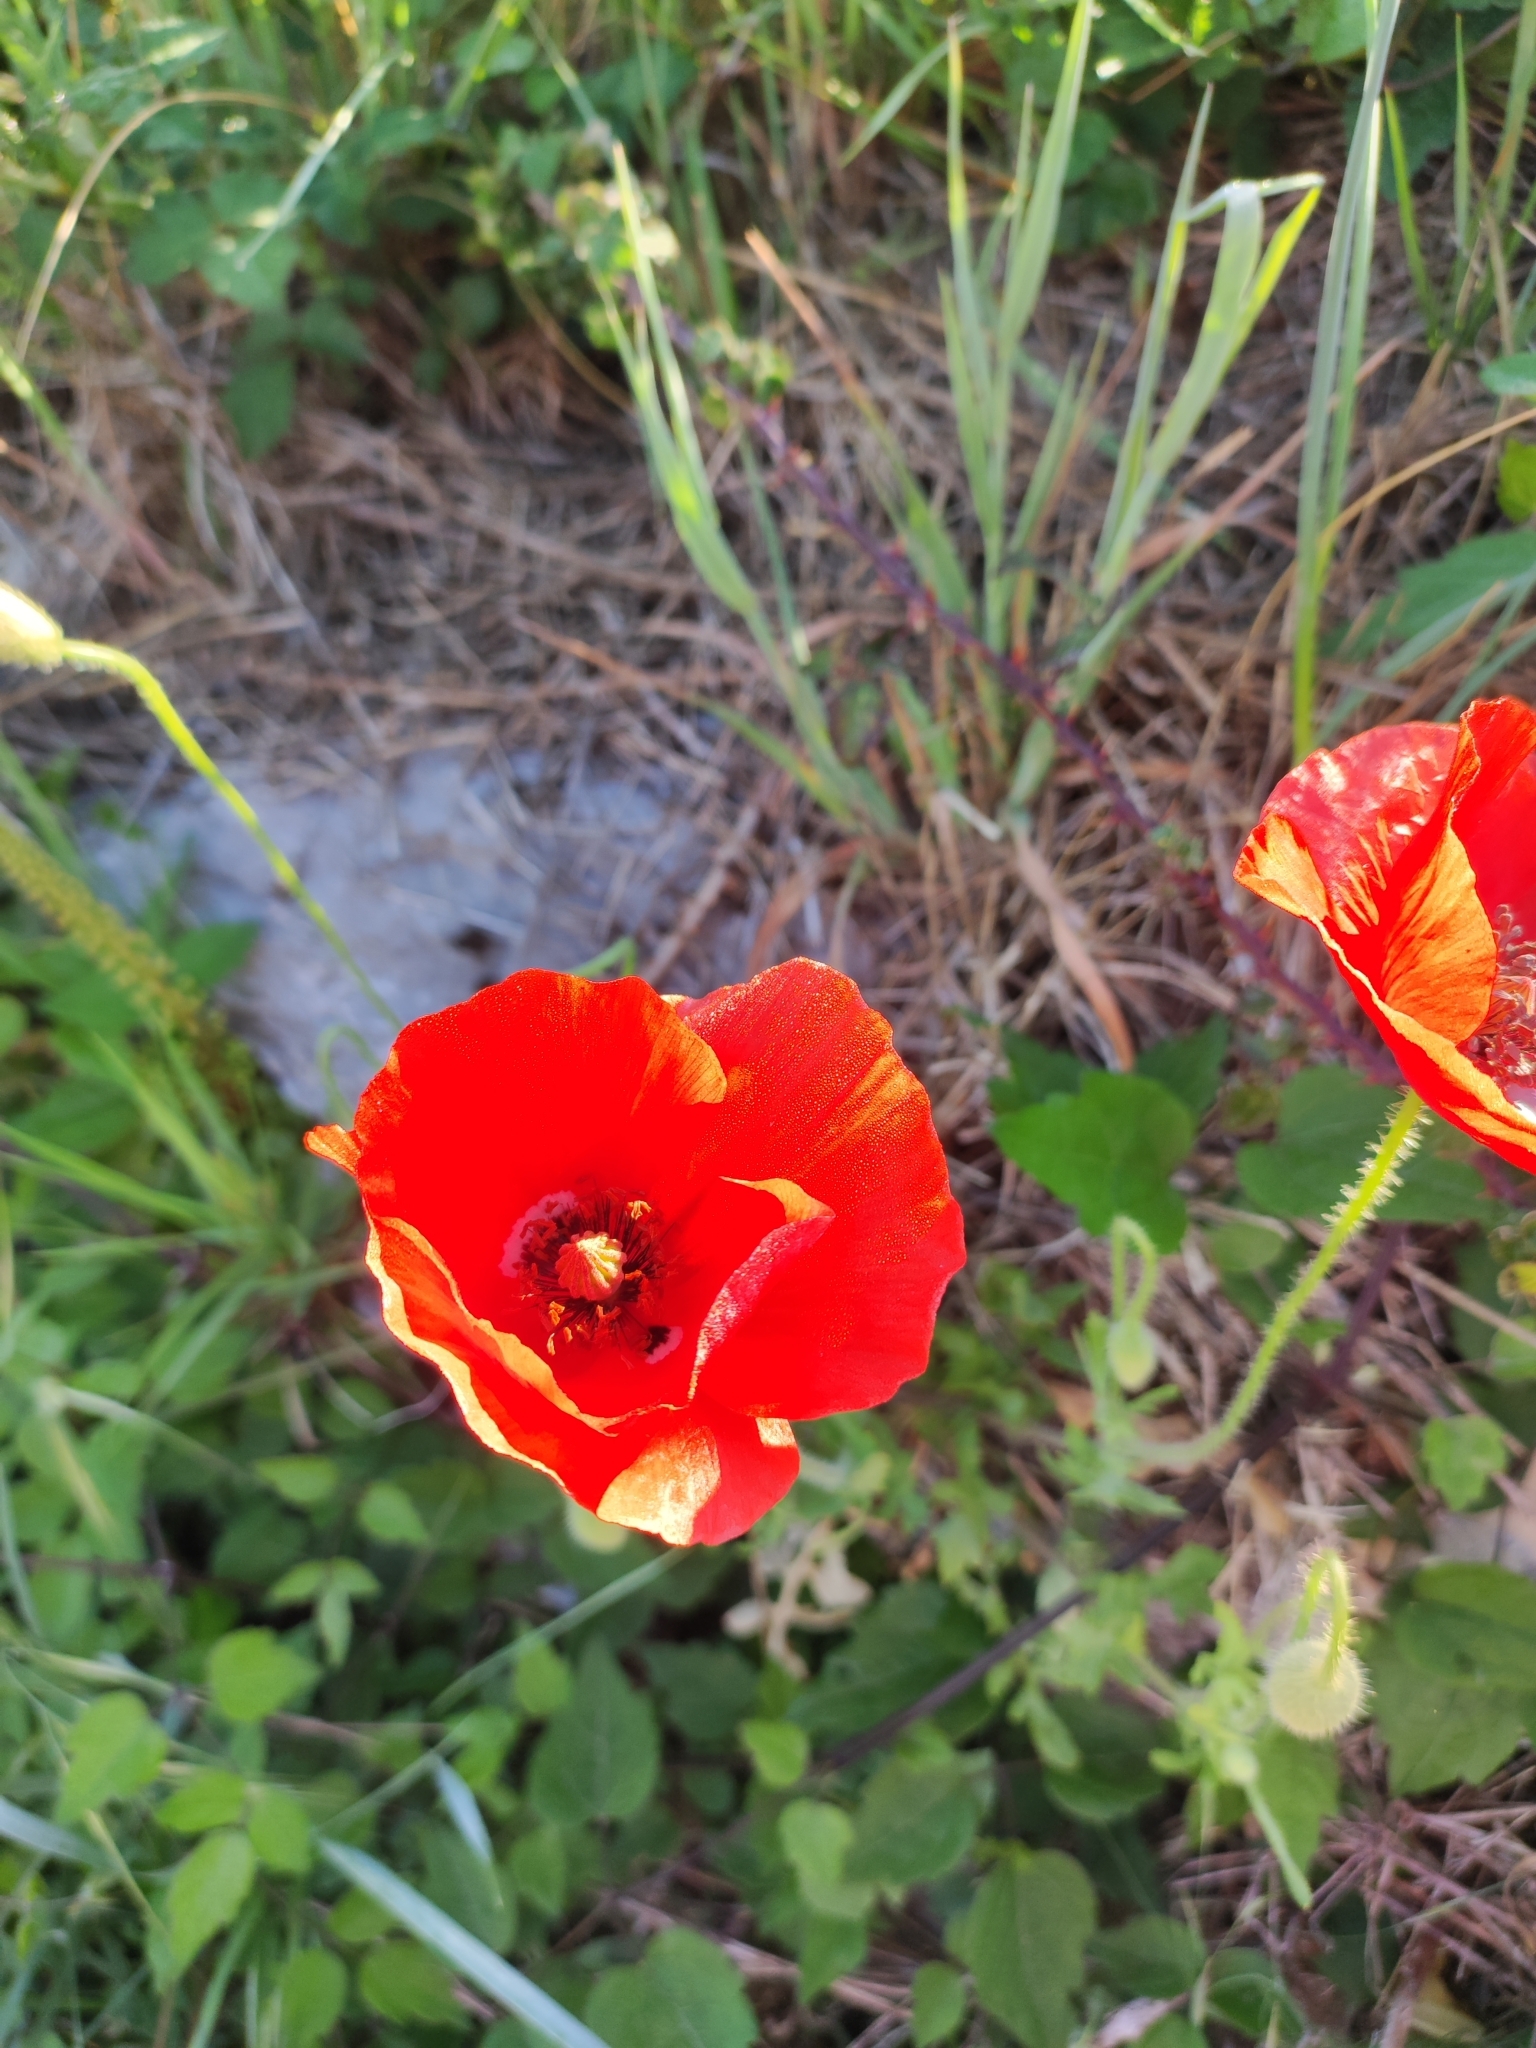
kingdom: Plantae
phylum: Tracheophyta
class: Magnoliopsida
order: Ranunculales
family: Papaveraceae
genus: Papaver
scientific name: Papaver rhoeas
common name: Corn poppy
